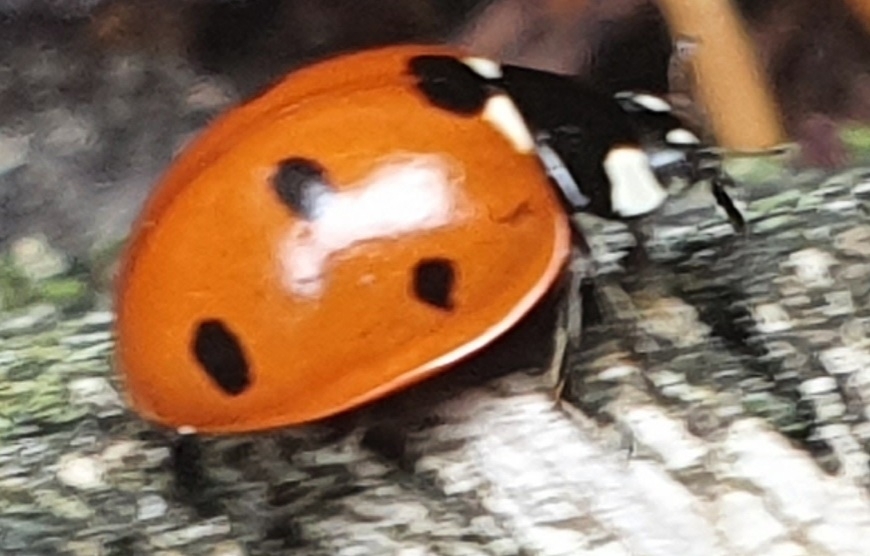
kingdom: Animalia
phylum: Arthropoda
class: Insecta
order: Coleoptera
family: Coccinellidae
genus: Coccinella
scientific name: Coccinella septempunctata
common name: Sevenspotted lady beetle
